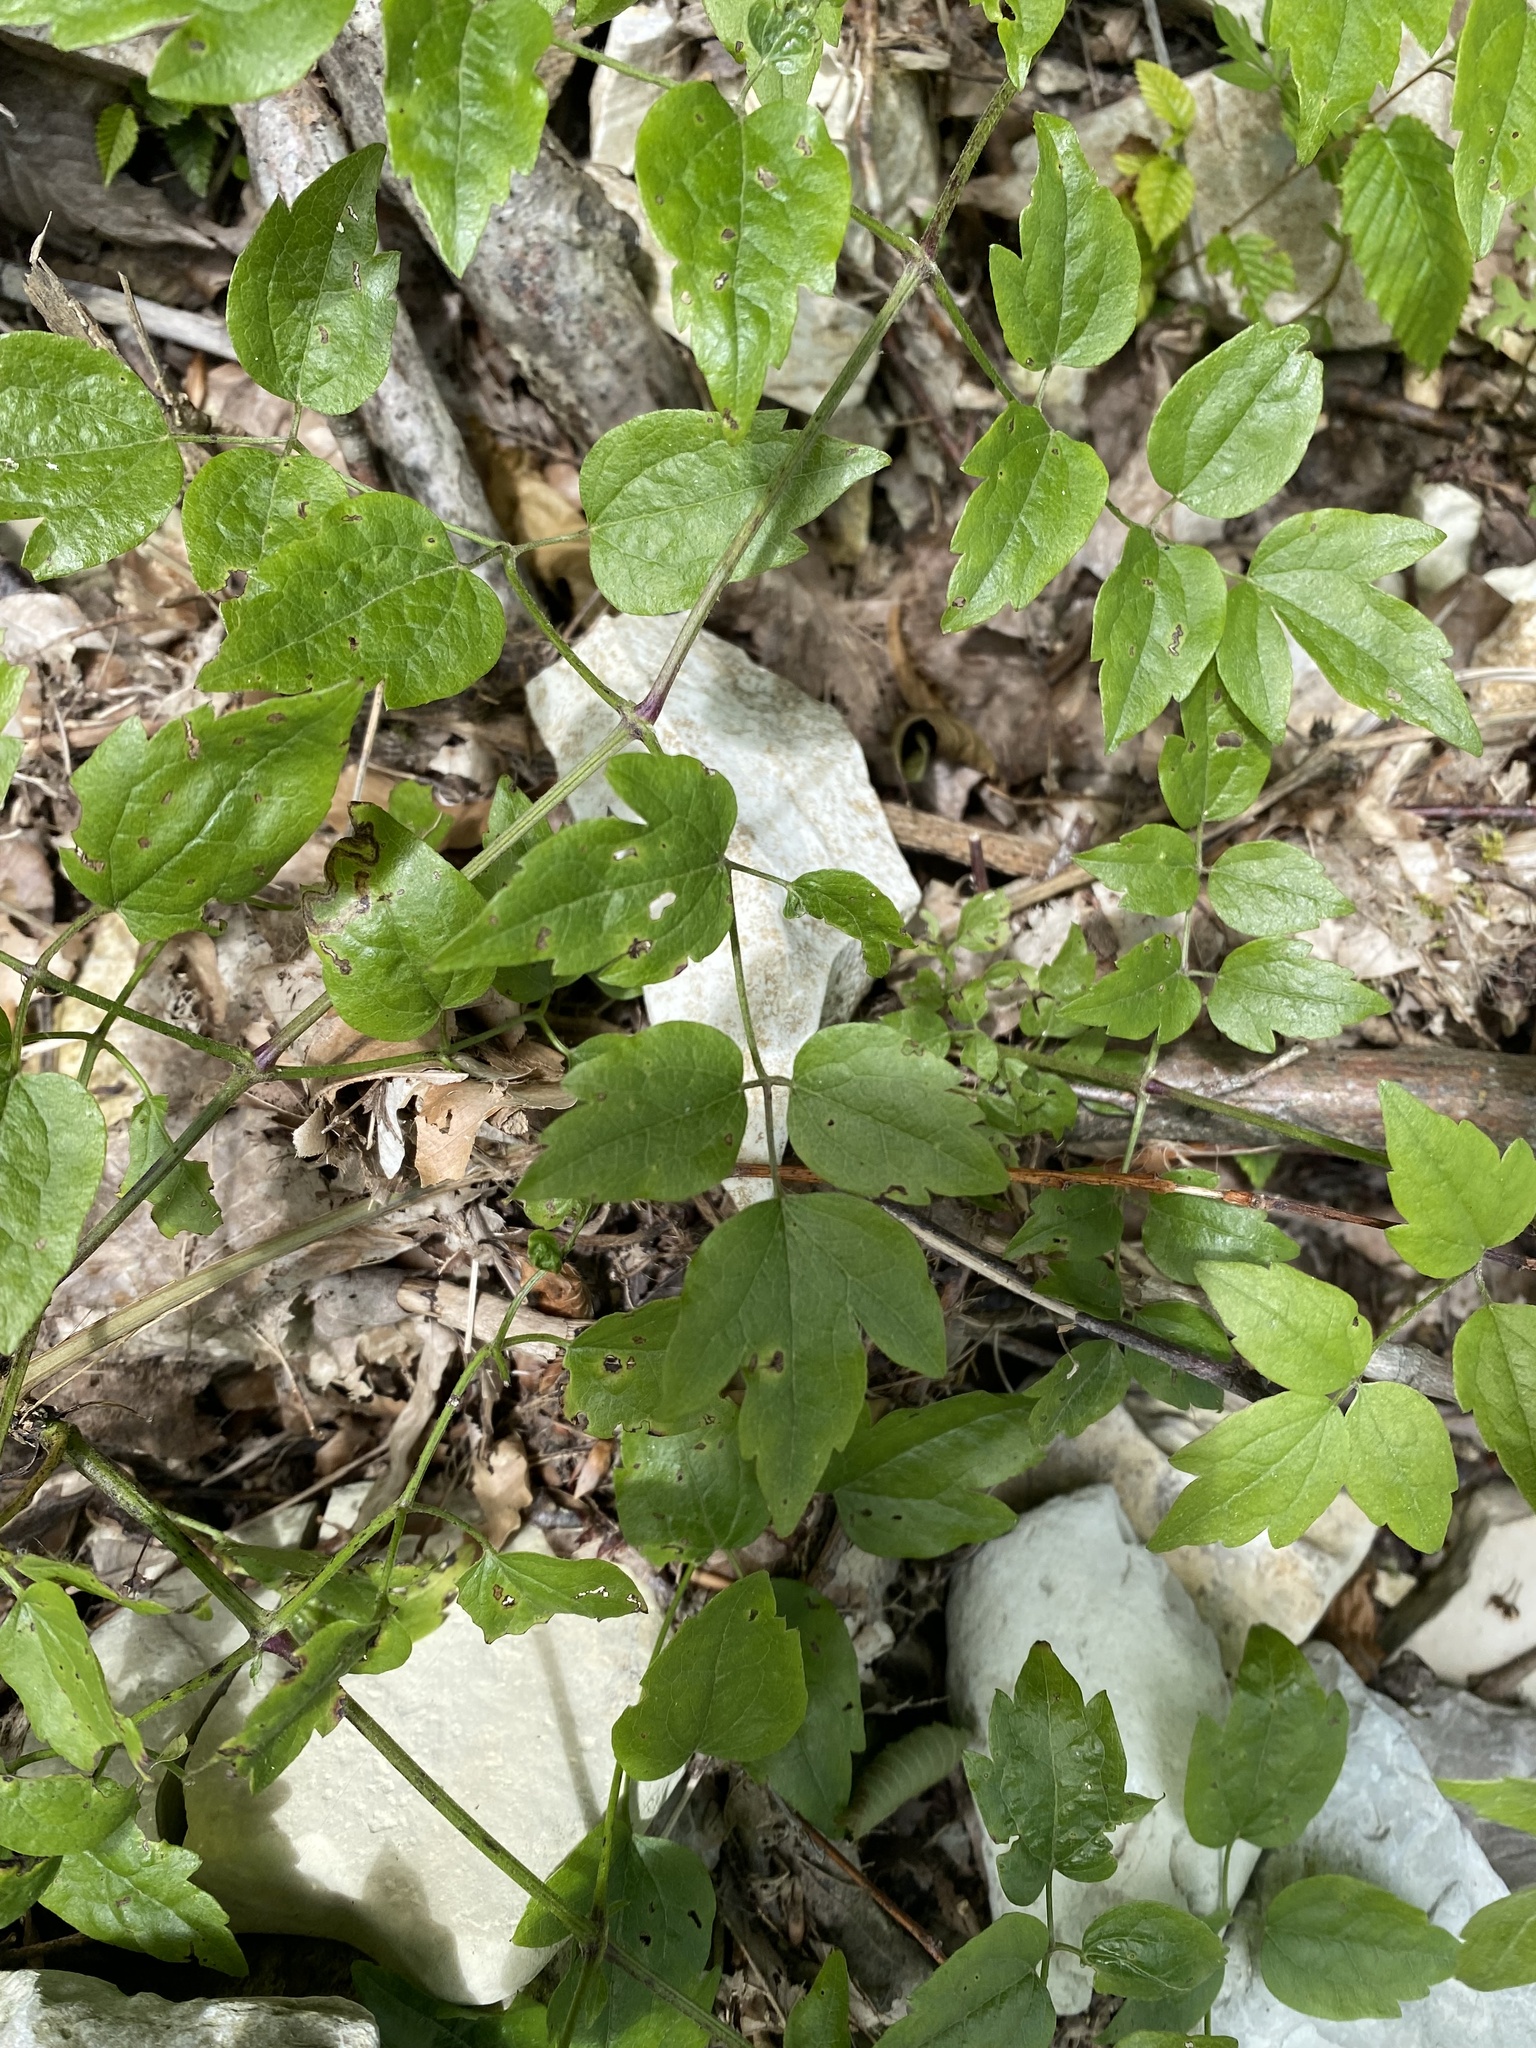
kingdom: Plantae
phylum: Tracheophyta
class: Magnoliopsida
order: Ranunculales
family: Ranunculaceae
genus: Clematis
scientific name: Clematis vitalba
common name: Evergreen clematis
